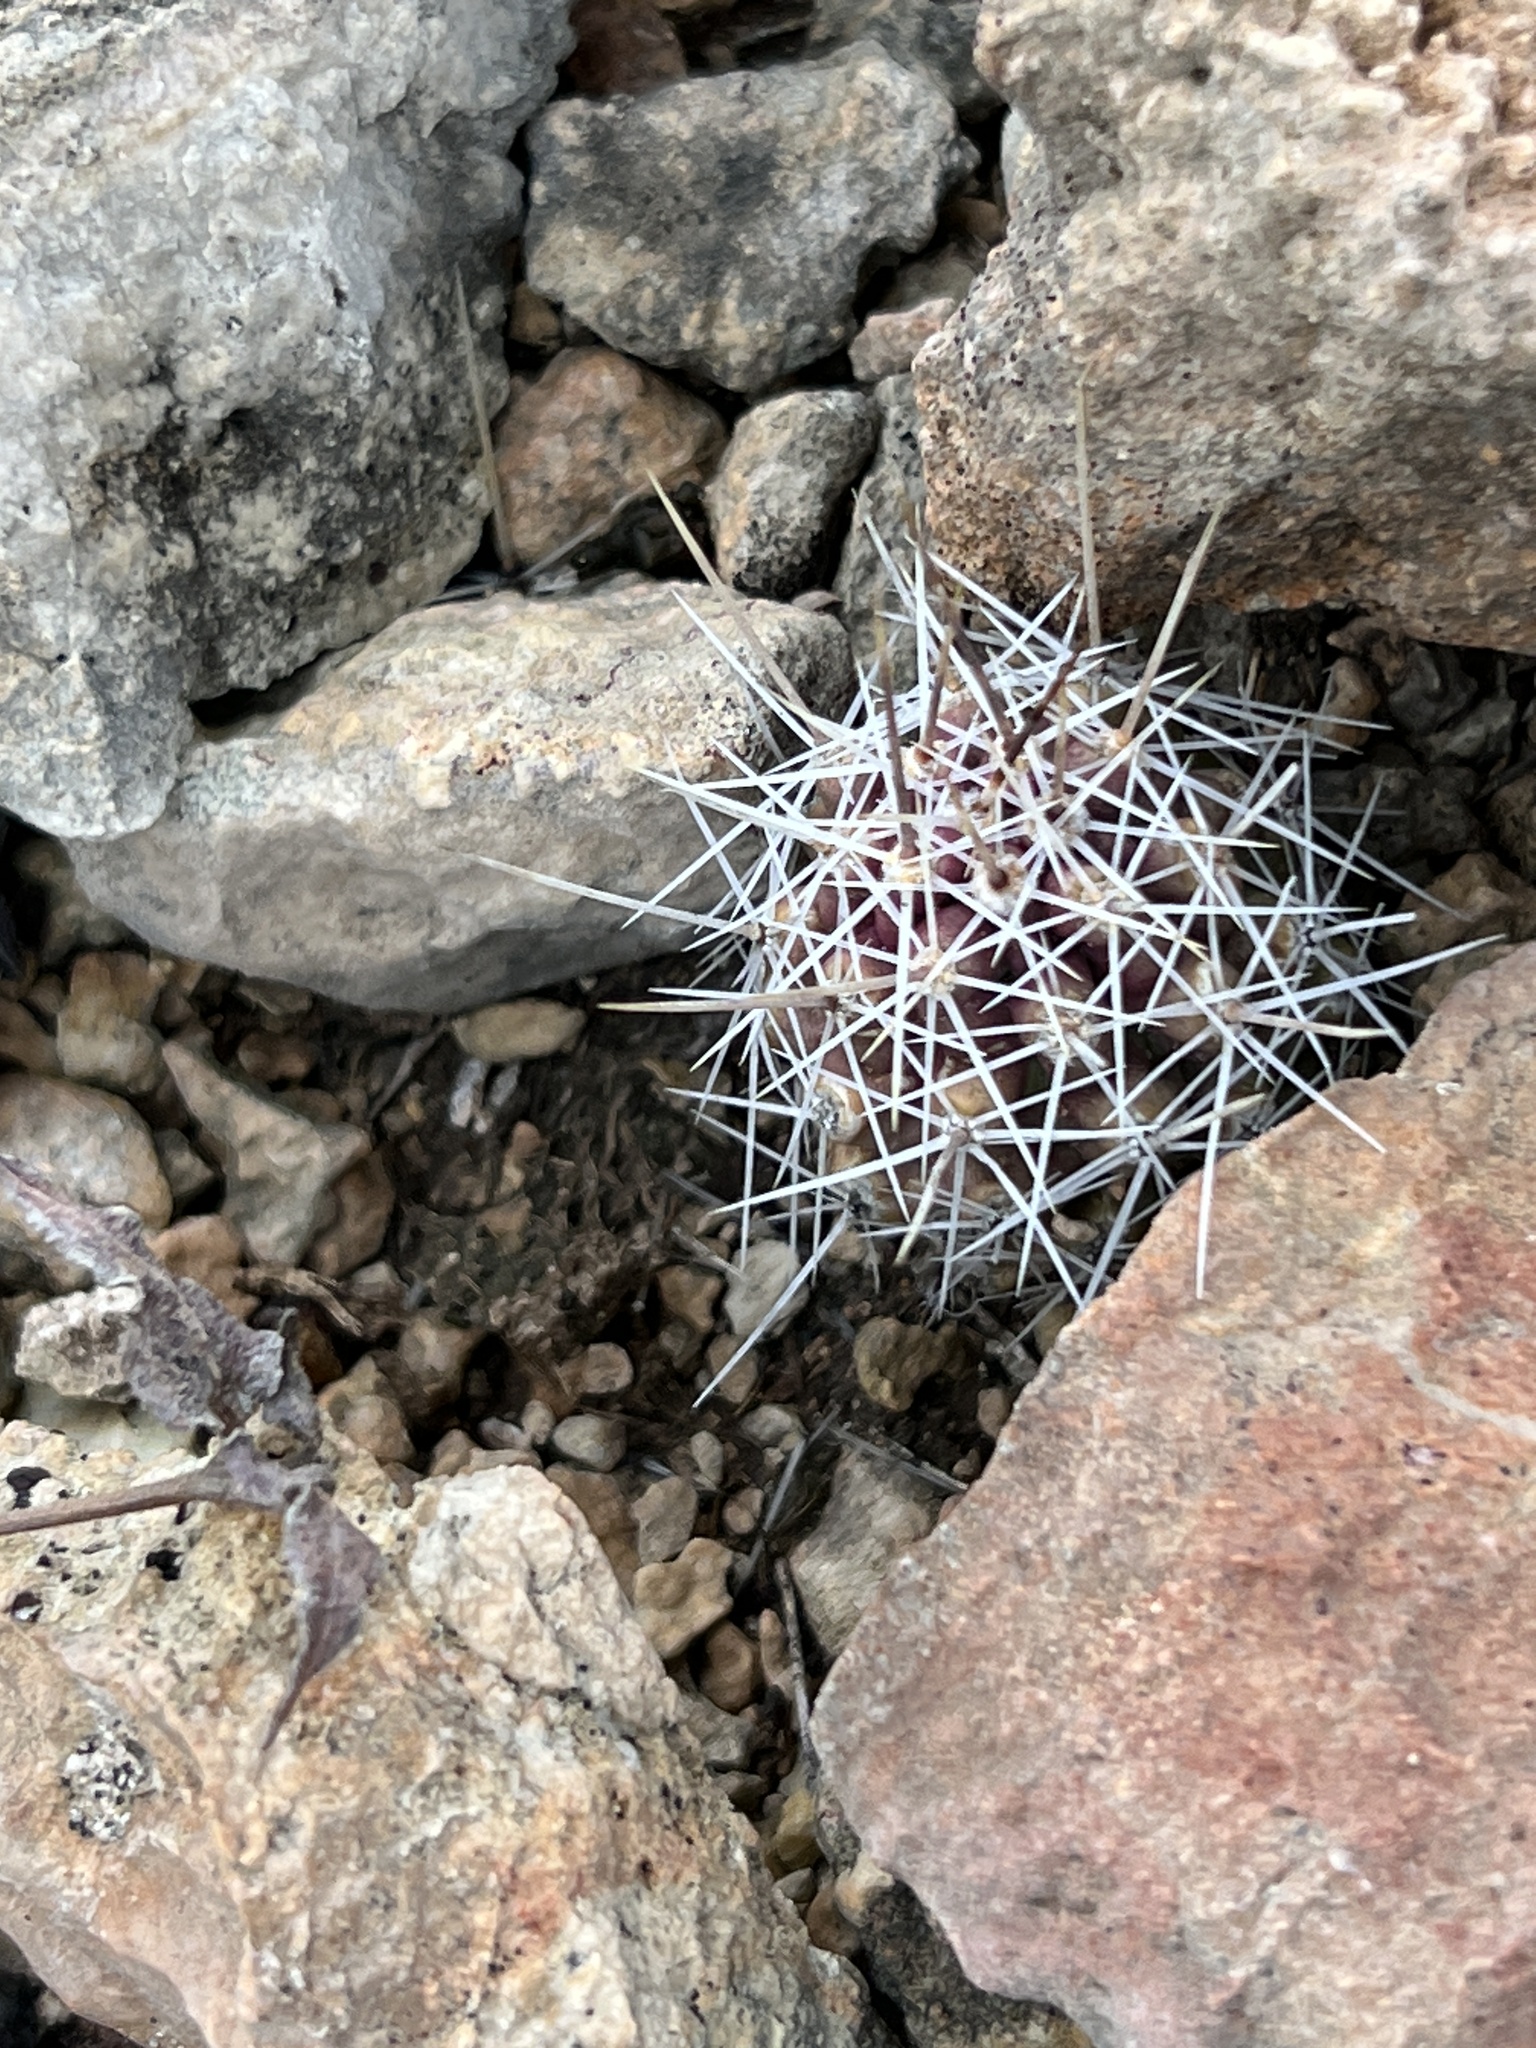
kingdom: Plantae
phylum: Tracheophyta
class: Magnoliopsida
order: Caryophyllales
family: Cactaceae
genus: Echinocereus
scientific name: Echinocereus enneacanthus
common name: Pitaya
